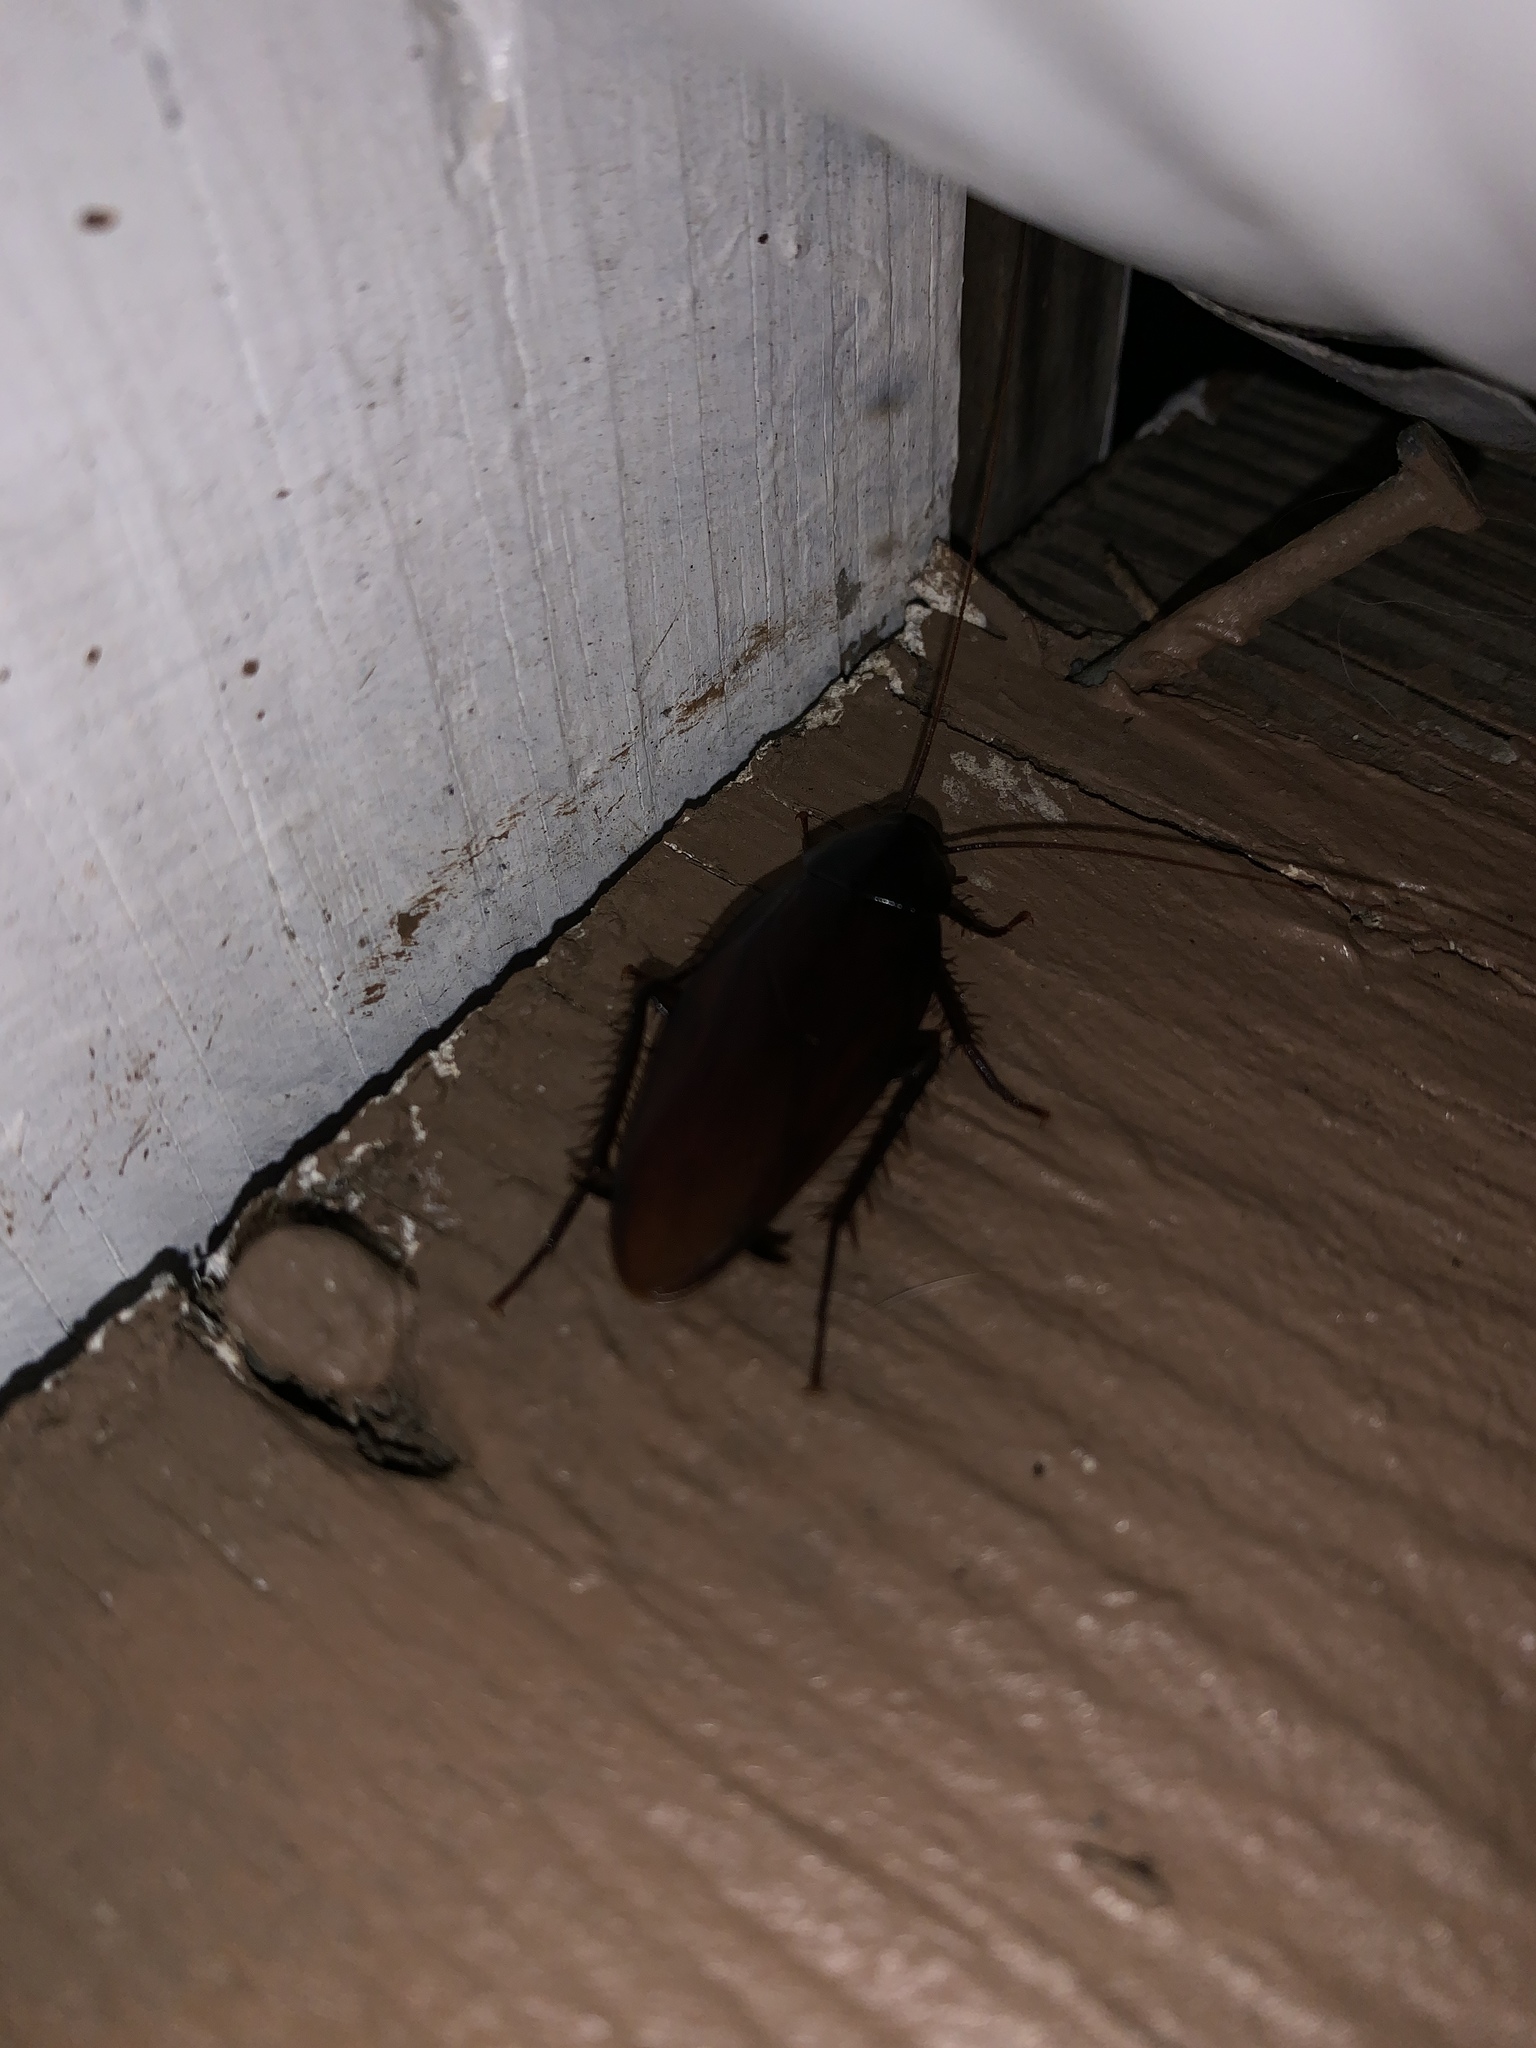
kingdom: Animalia
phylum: Arthropoda
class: Insecta
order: Blattodea
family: Blattidae
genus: Periplaneta
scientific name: Periplaneta fuliginosa
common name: Smokeybrown cockroad
